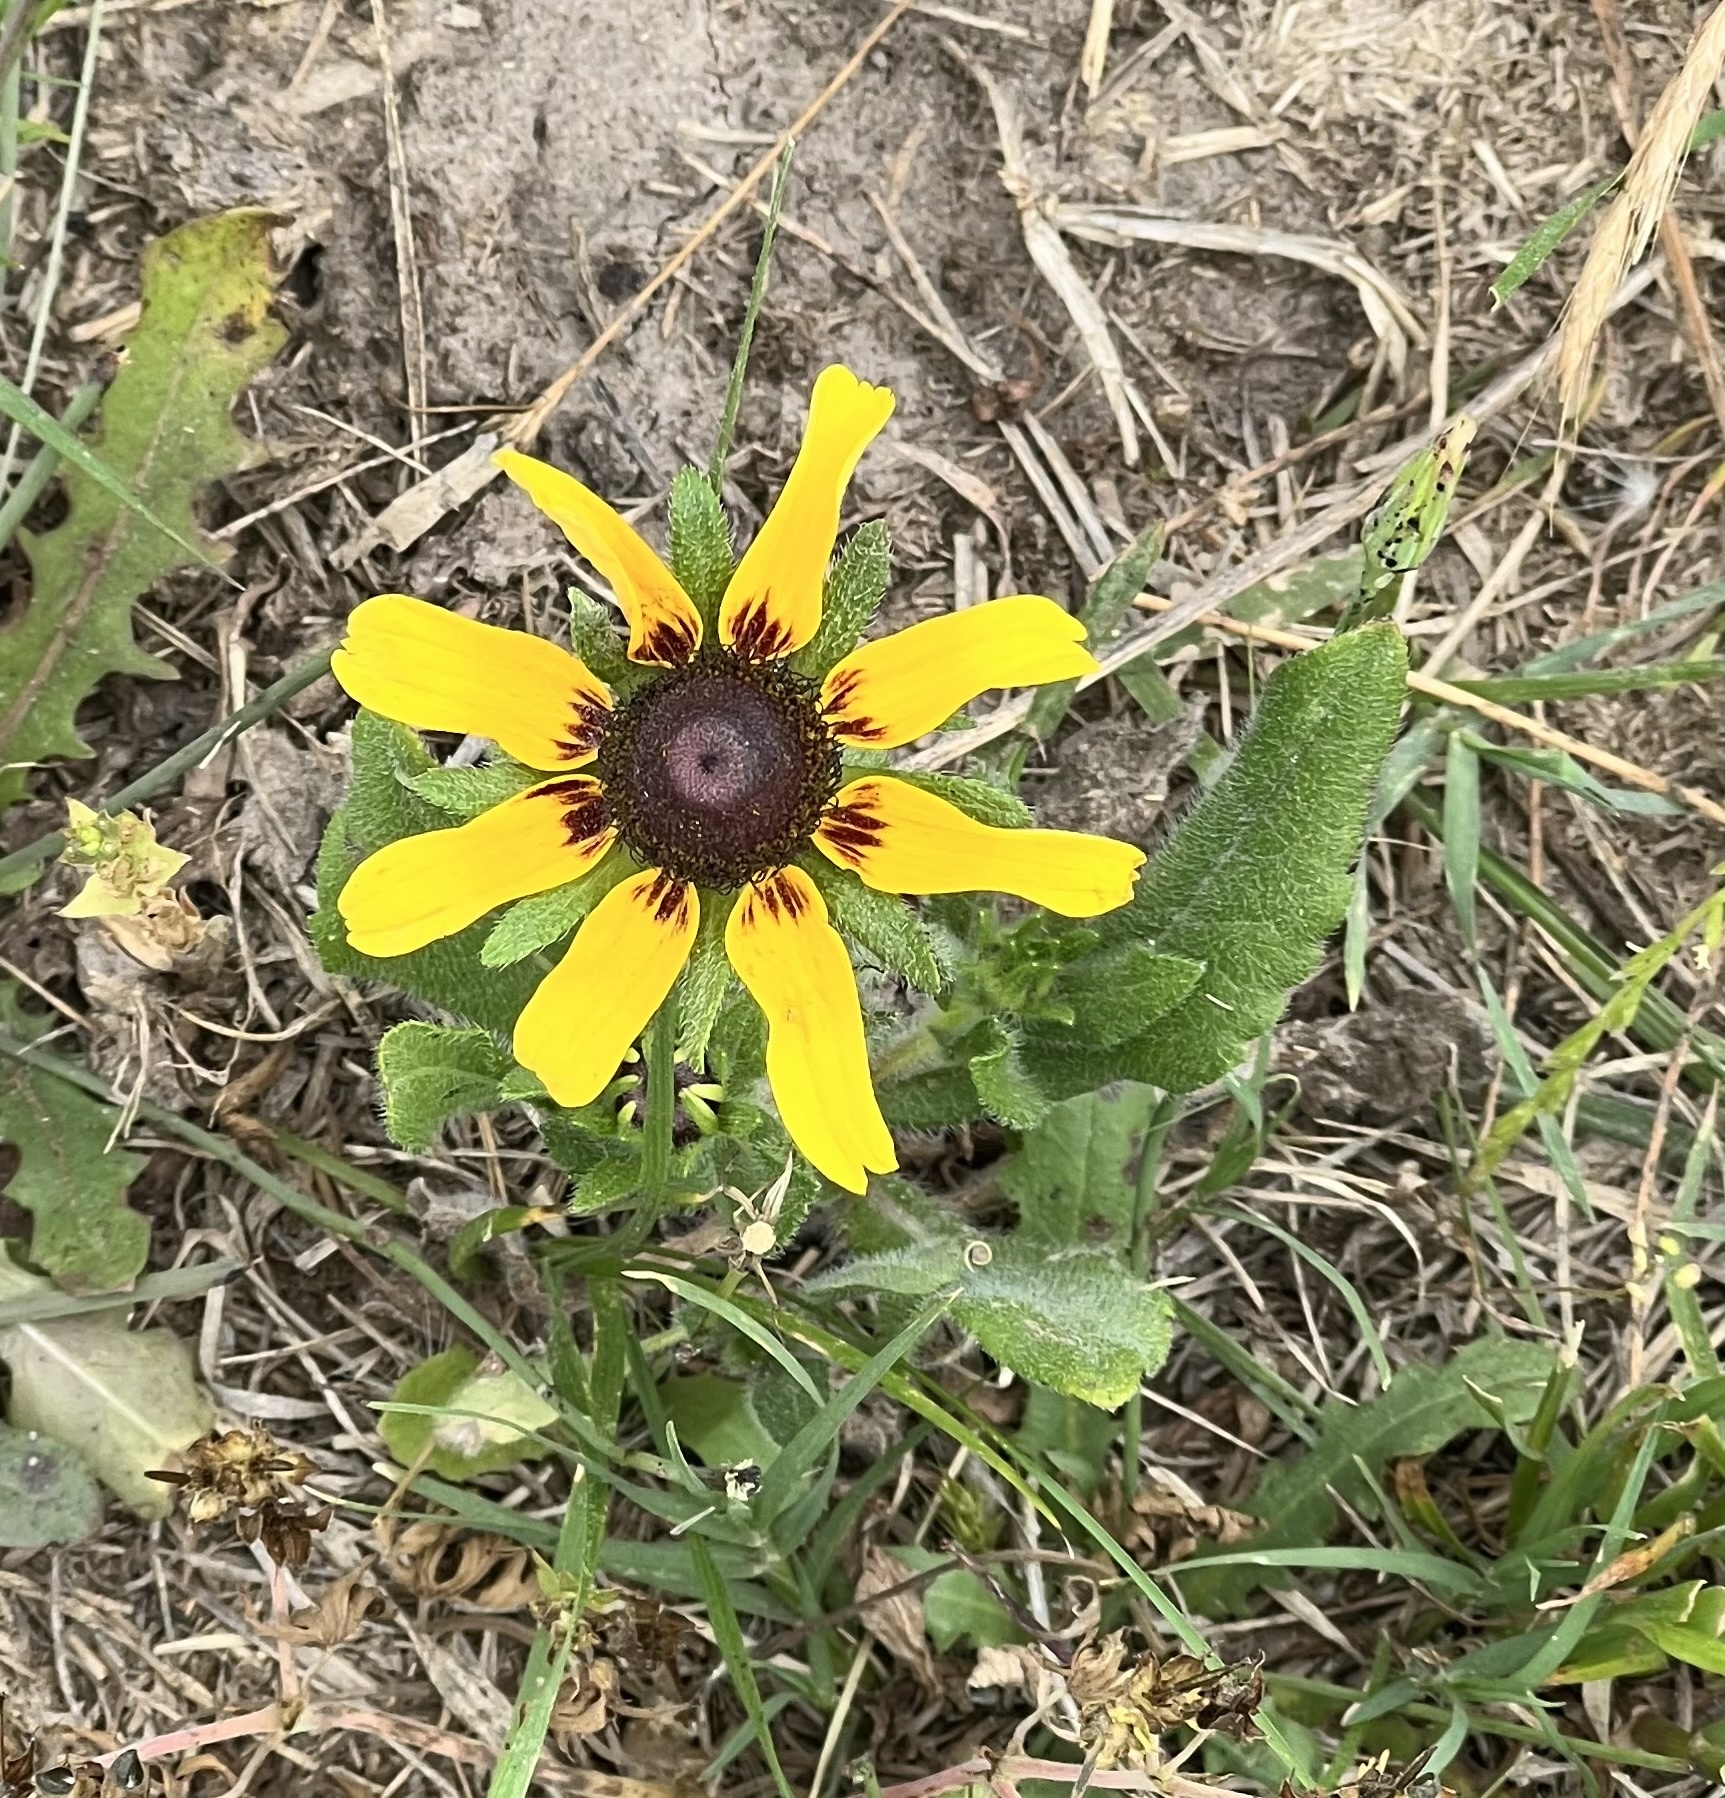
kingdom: Plantae
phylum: Tracheophyta
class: Magnoliopsida
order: Asterales
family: Asteraceae
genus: Rudbeckia
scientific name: Rudbeckia hirta
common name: Black-eyed-susan
